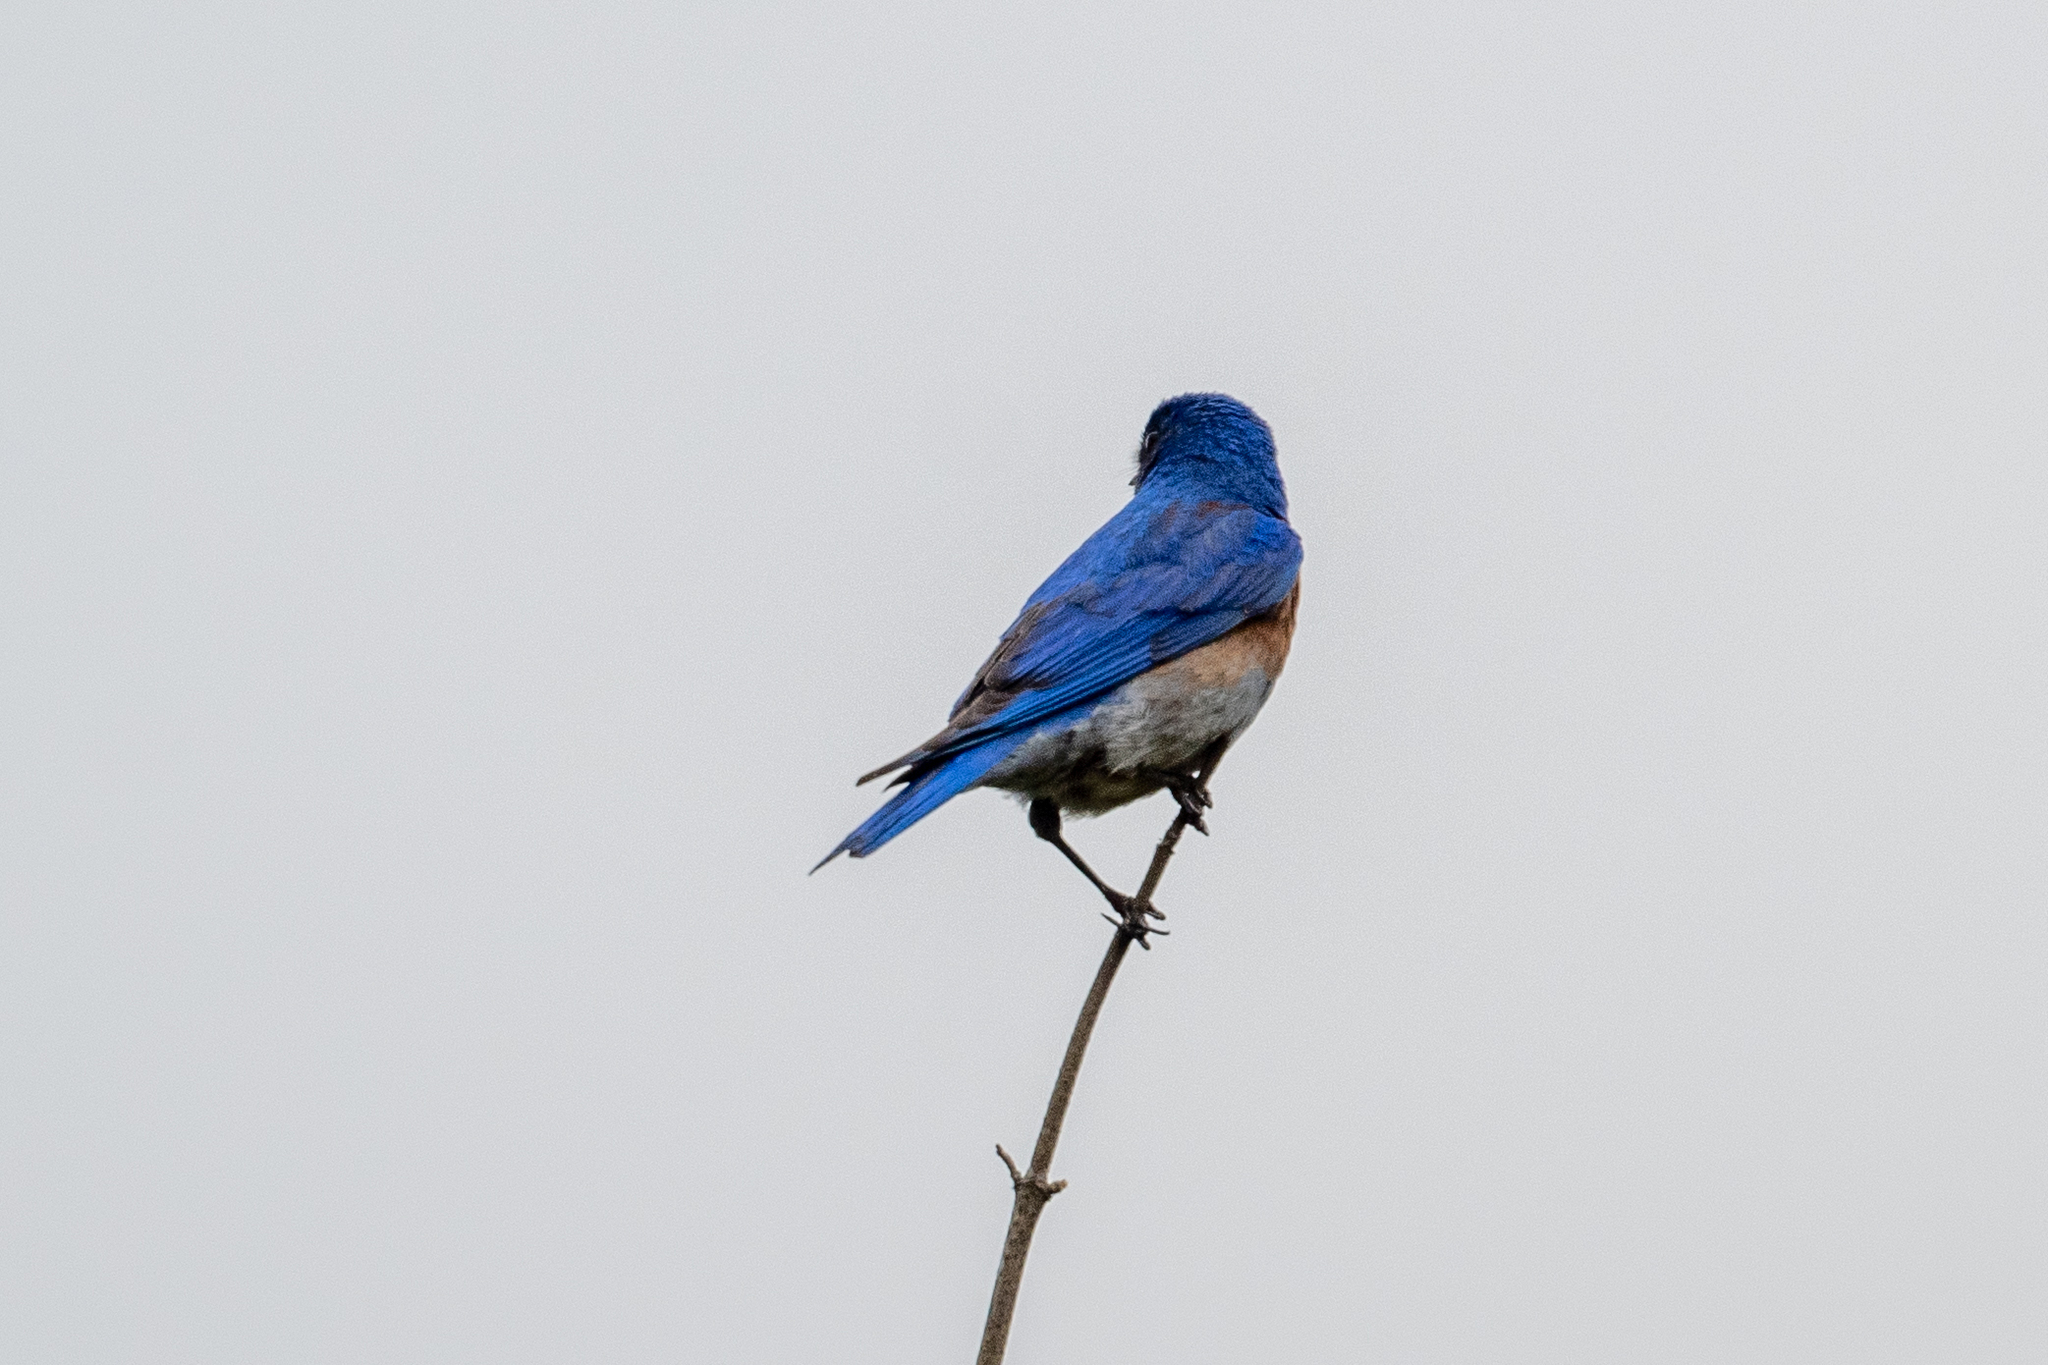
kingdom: Animalia
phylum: Chordata
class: Aves
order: Passeriformes
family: Turdidae
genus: Sialia
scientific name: Sialia mexicana
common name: Western bluebird
